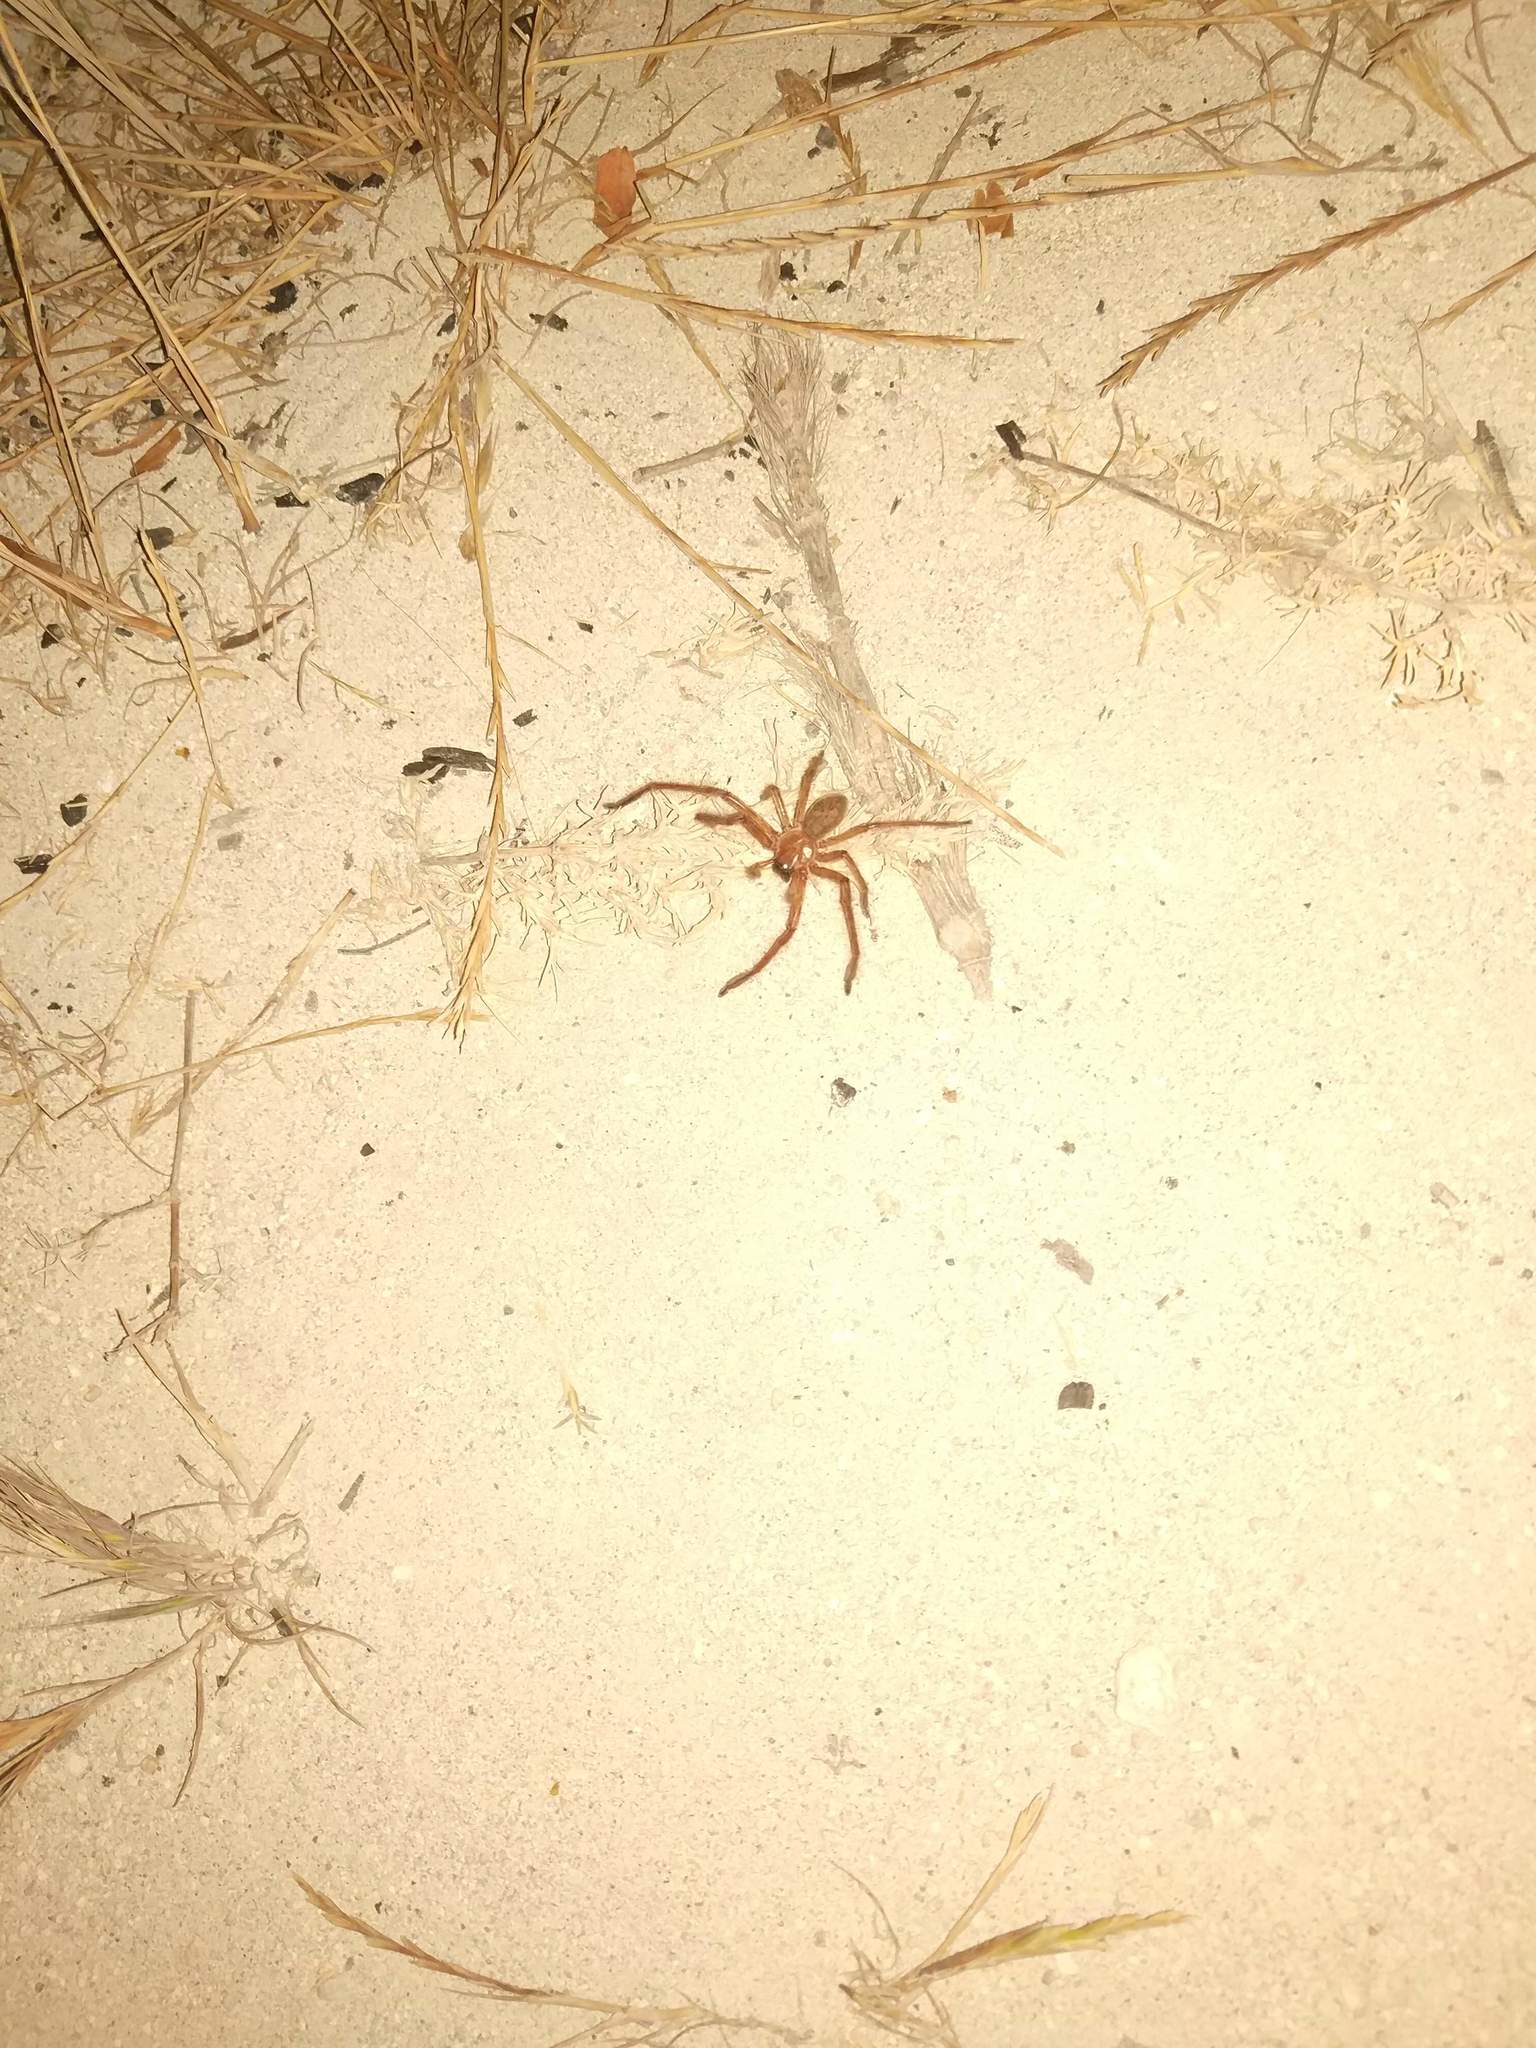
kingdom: Animalia
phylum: Arthropoda
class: Arachnida
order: Araneae
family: Sparassidae
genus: Delena
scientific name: Delena cancerides
